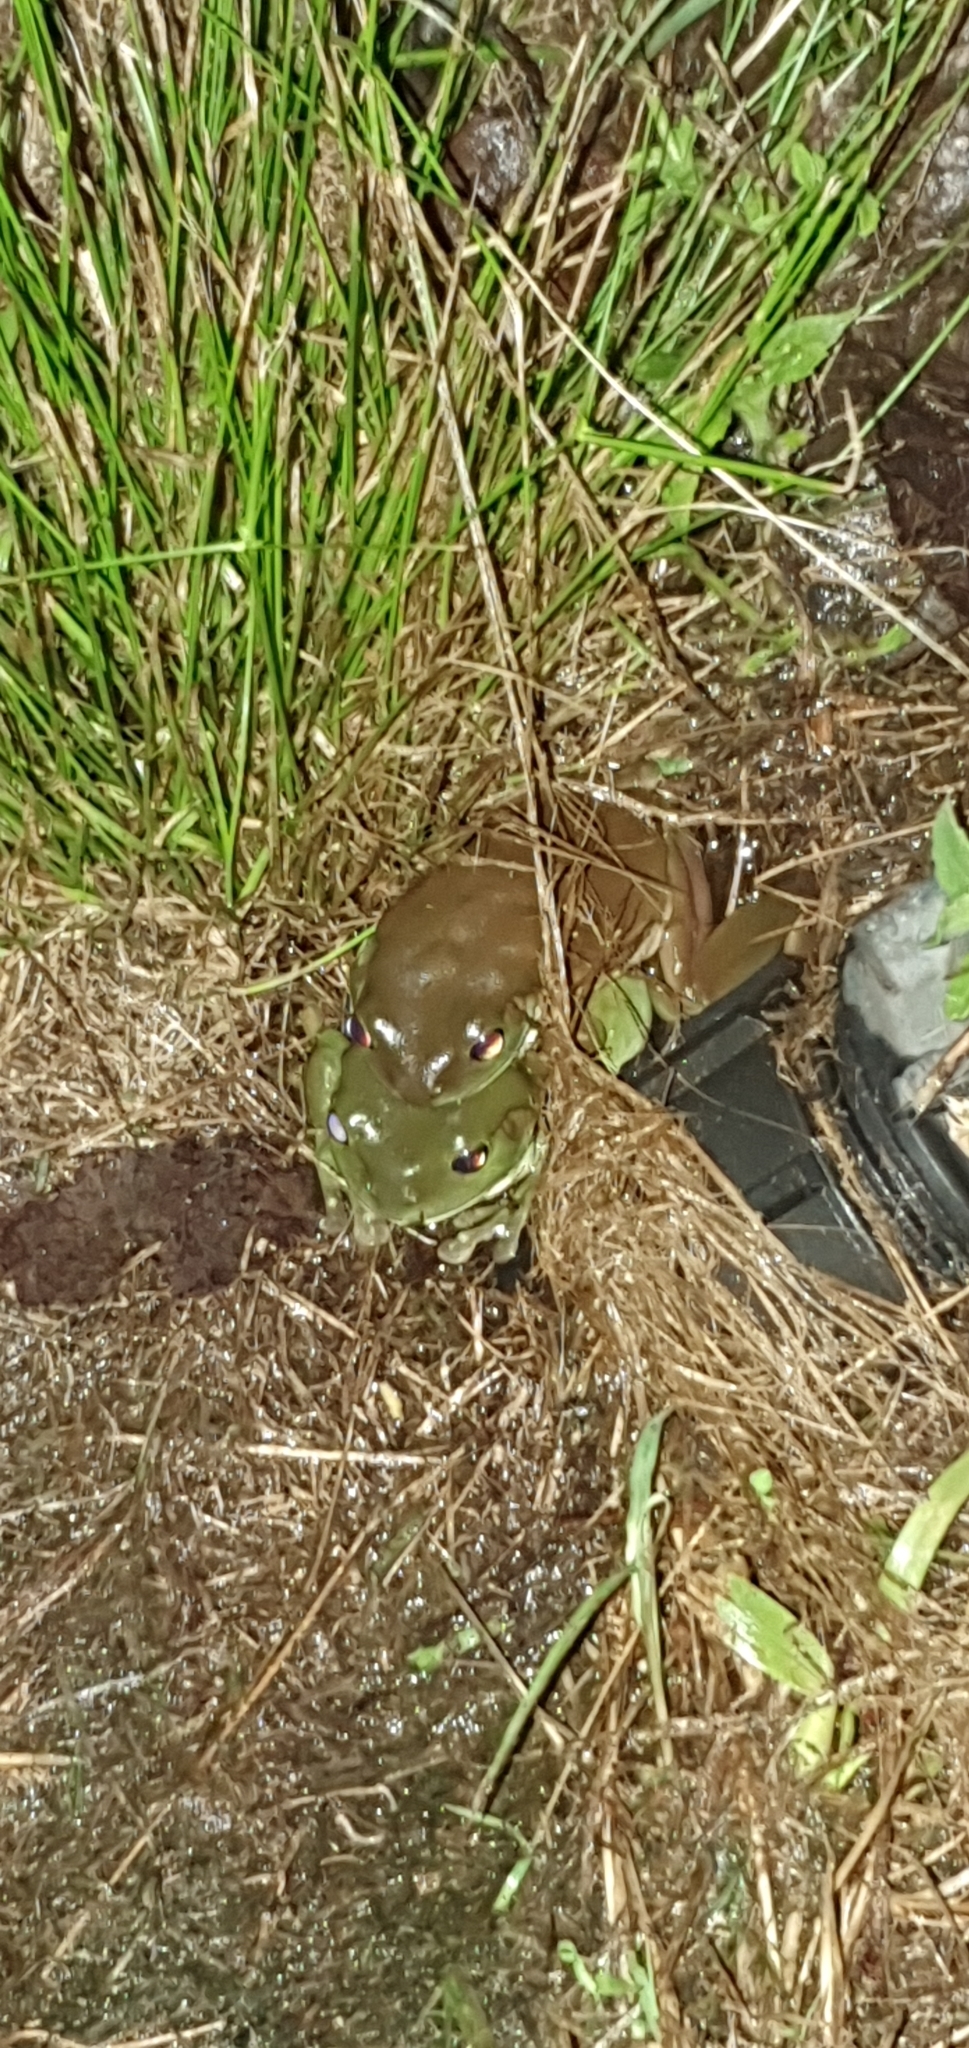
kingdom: Animalia
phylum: Chordata
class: Amphibia
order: Anura
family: Pelodryadidae
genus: Ranoidea
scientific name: Ranoidea caerulea
